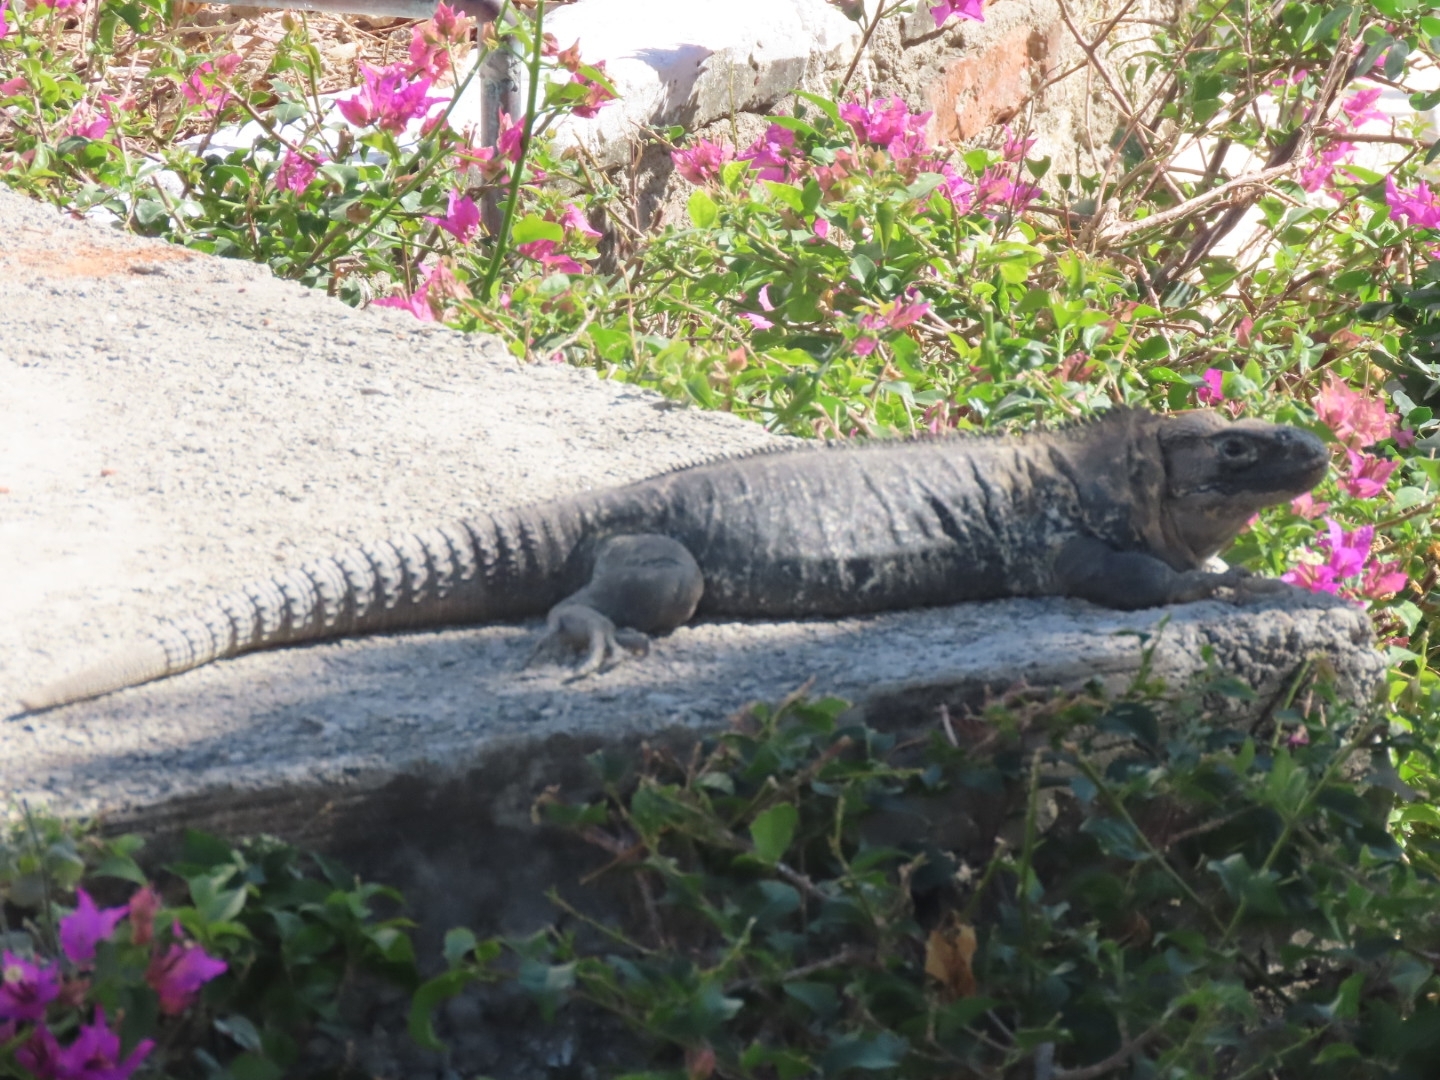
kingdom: Animalia
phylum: Chordata
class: Squamata
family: Iguanidae
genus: Ctenosaura
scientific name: Ctenosaura pectinata
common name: Guerreran spiny-tailed iguana
